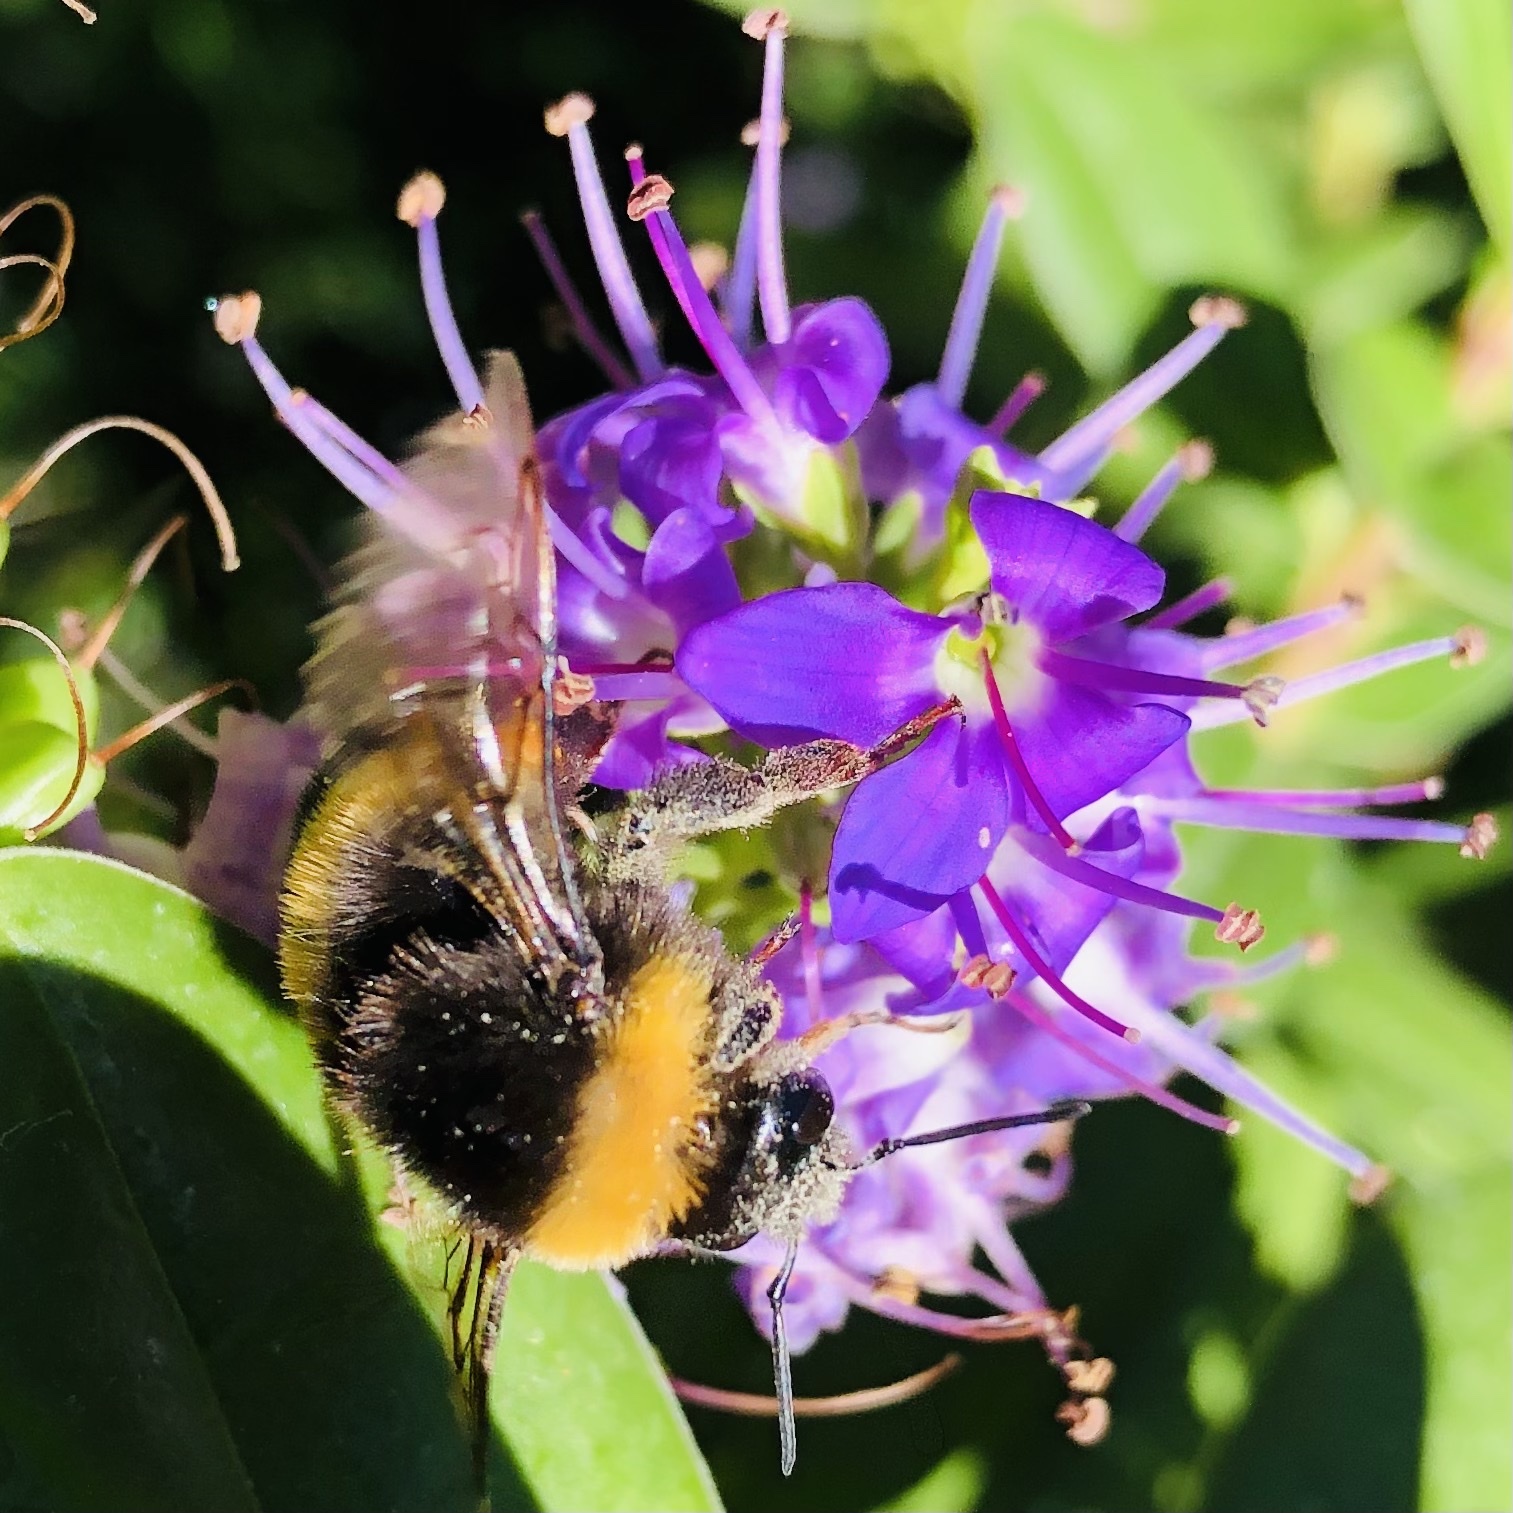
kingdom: Animalia
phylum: Arthropoda
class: Insecta
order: Hymenoptera
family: Apidae
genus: Bombus
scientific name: Bombus terrestris
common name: Buff-tailed bumblebee
